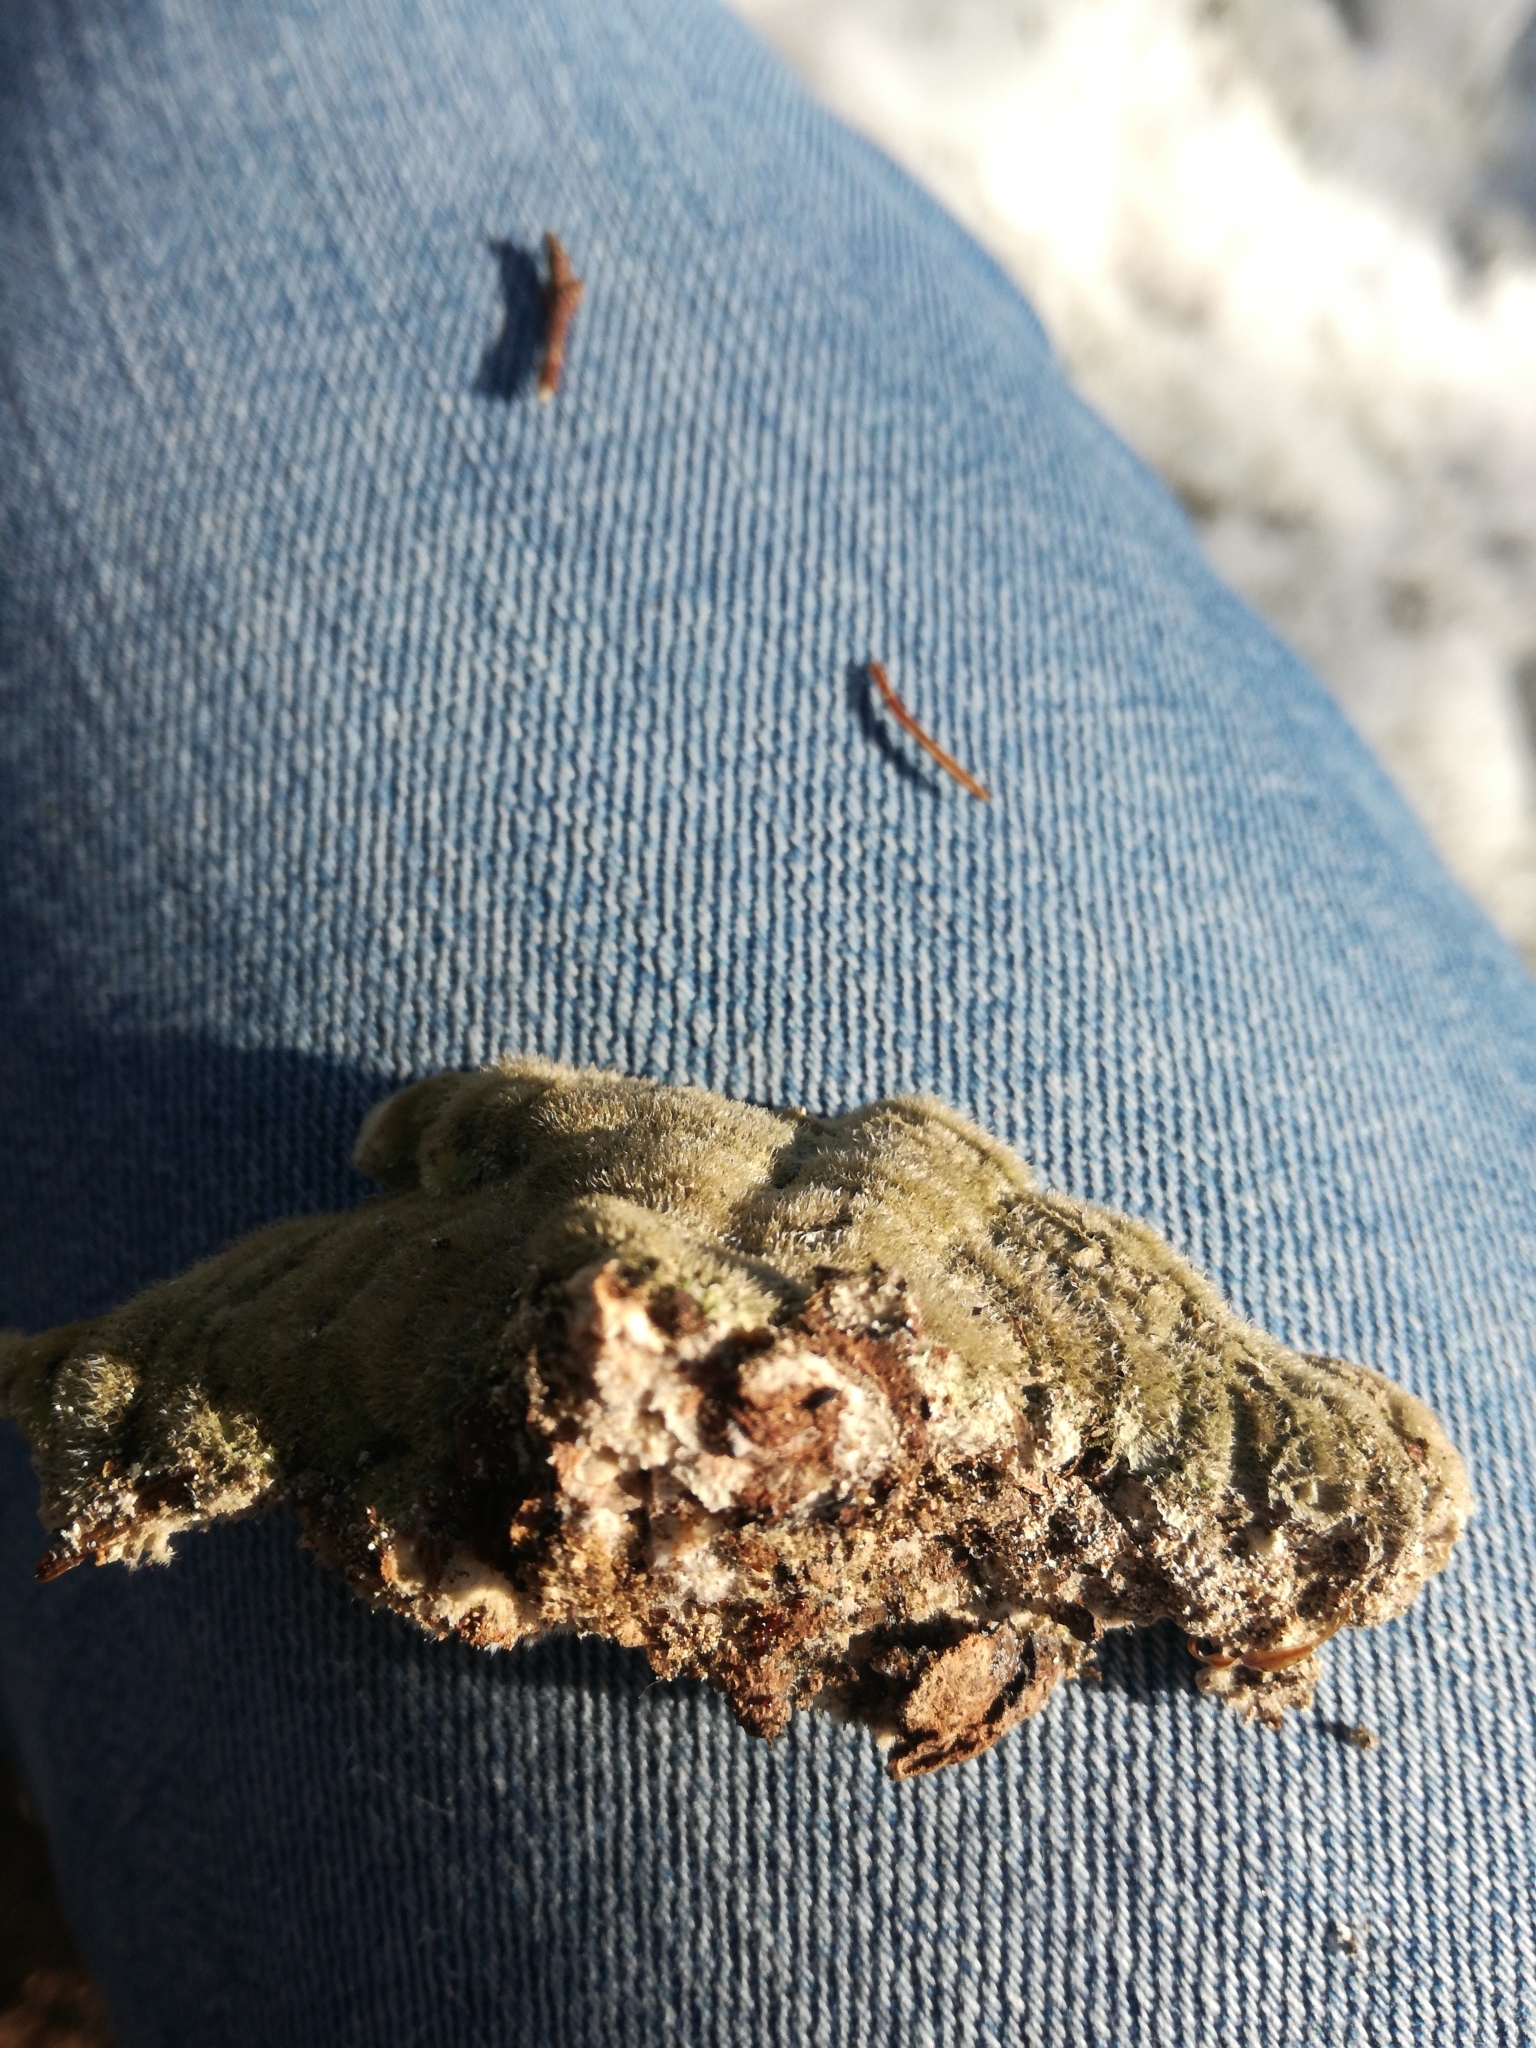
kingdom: Fungi
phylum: Basidiomycota
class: Agaricomycetes
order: Polyporales
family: Cerrenaceae
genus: Cerrena
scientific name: Cerrena unicolor
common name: Mossy maze polypore
